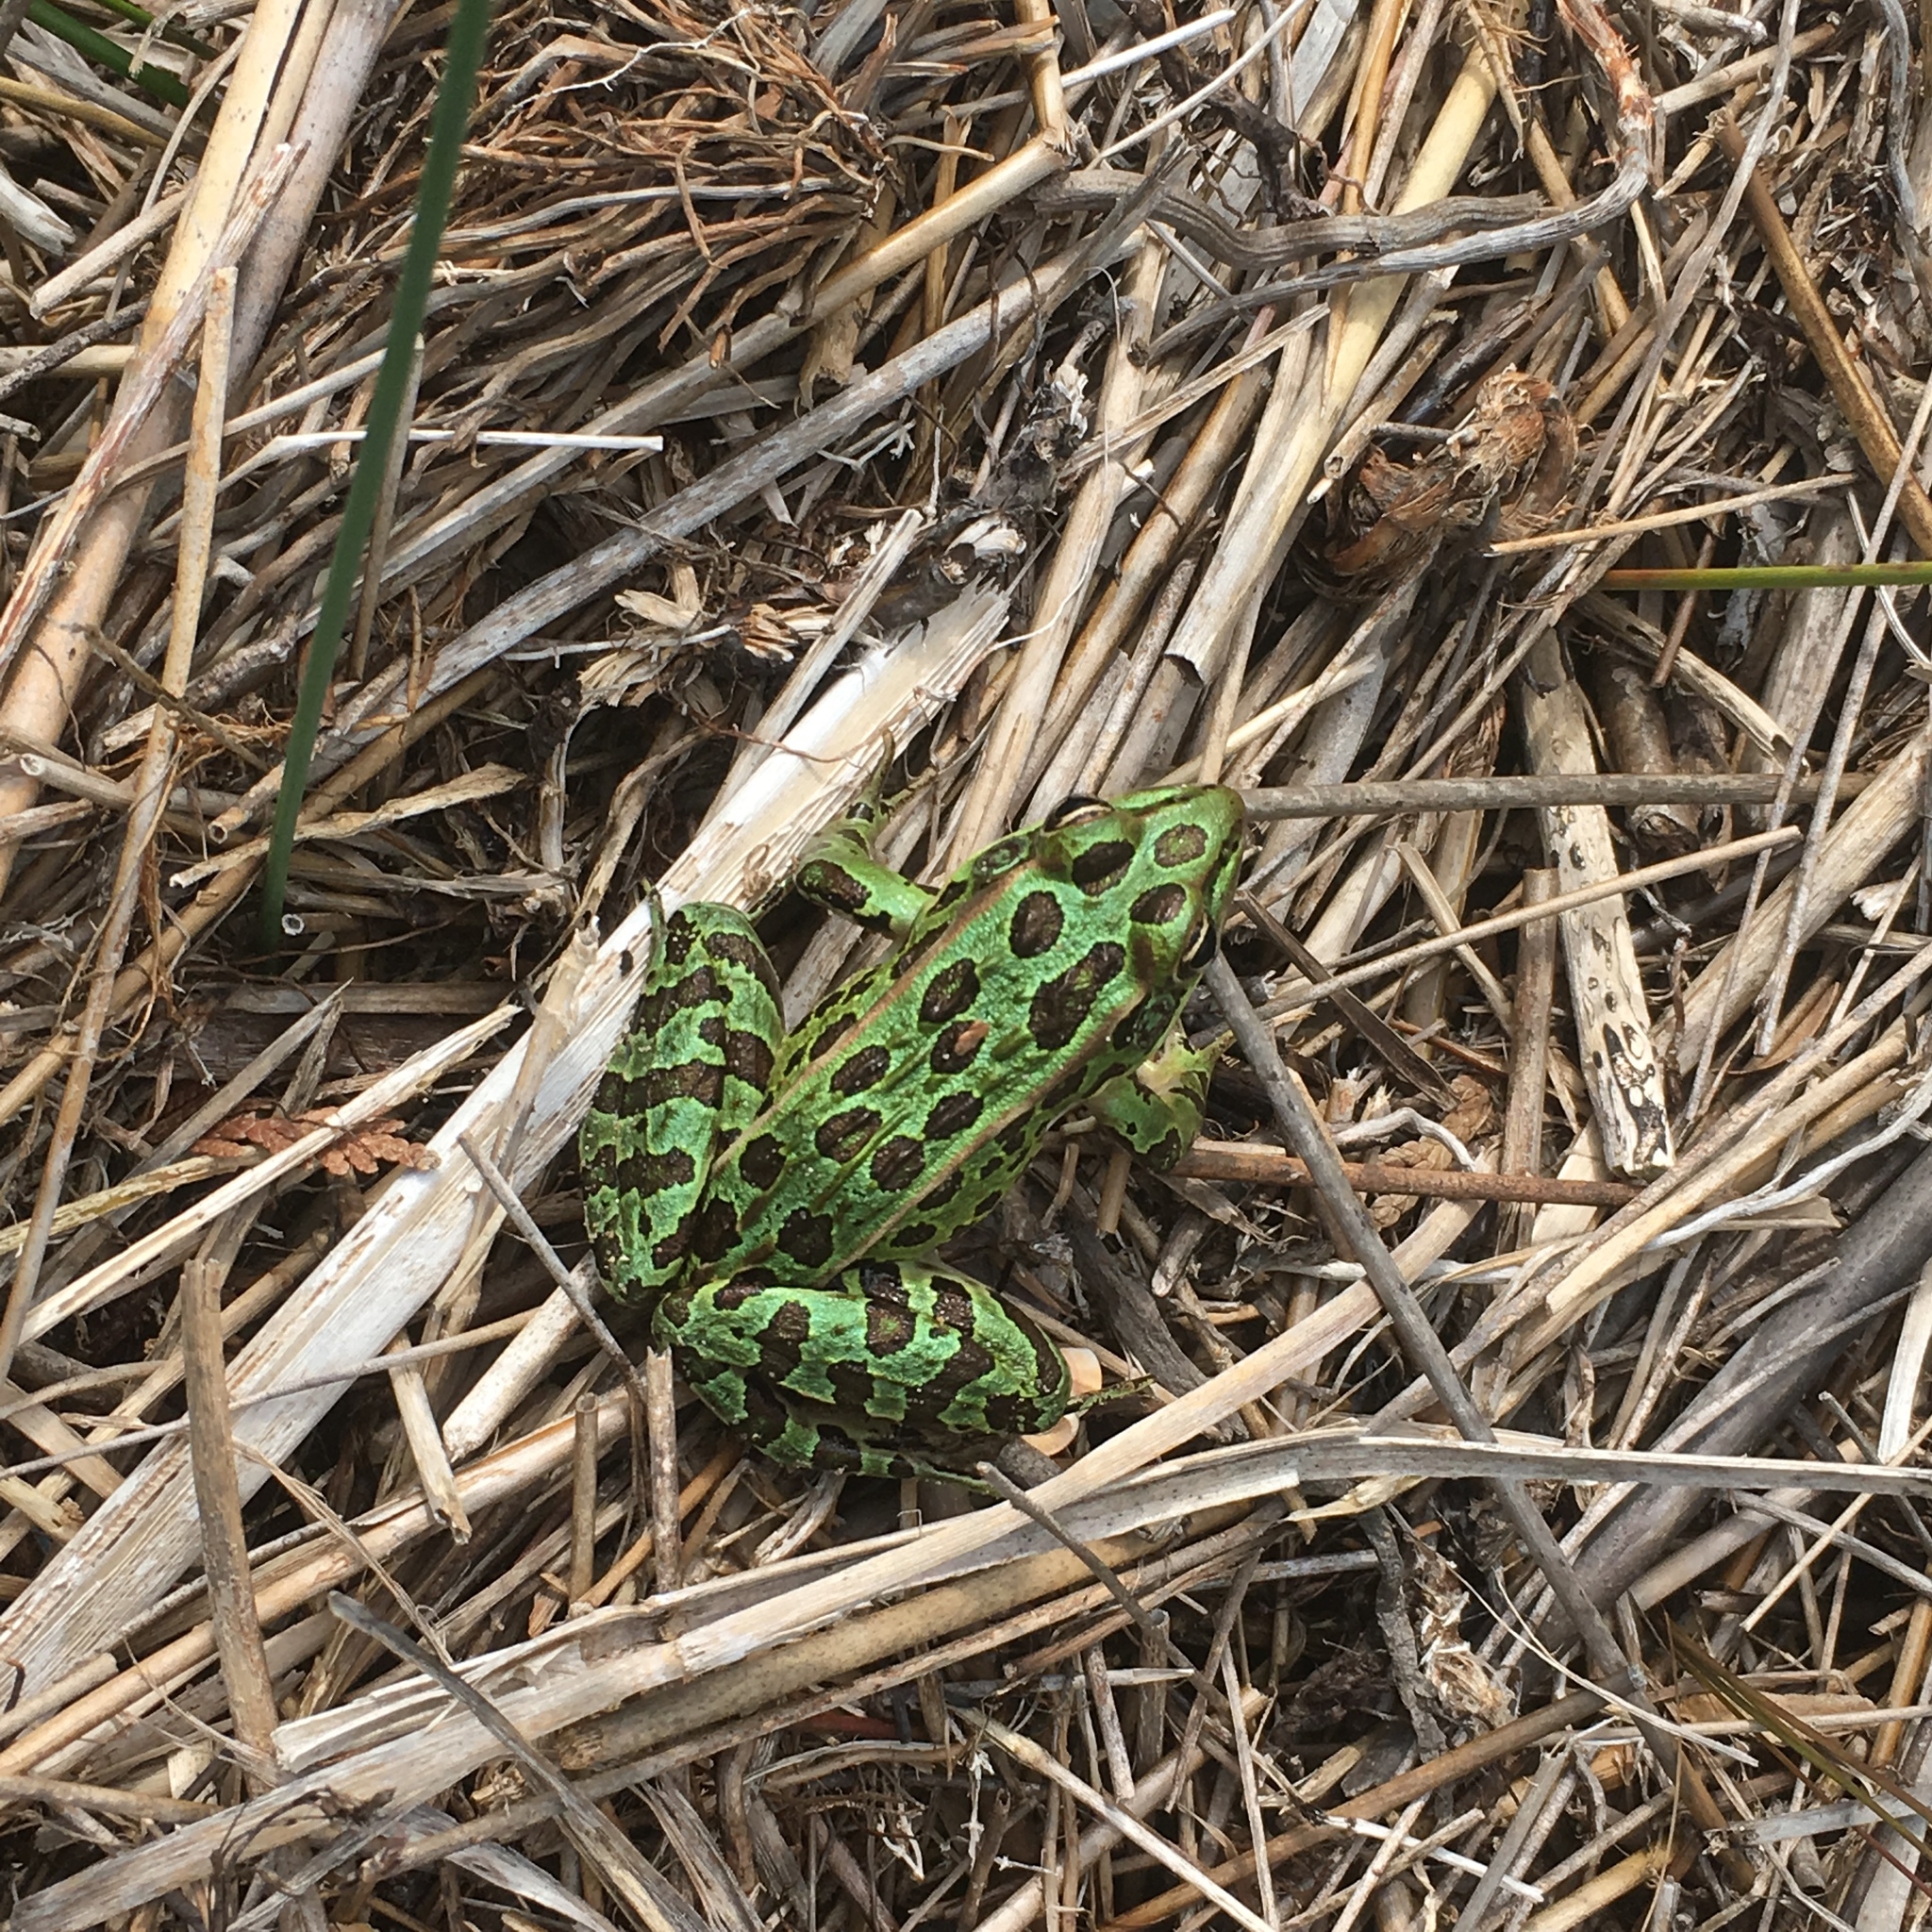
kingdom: Animalia
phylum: Chordata
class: Amphibia
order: Anura
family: Ranidae
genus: Lithobates
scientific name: Lithobates pipiens
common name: Northern leopard frog
